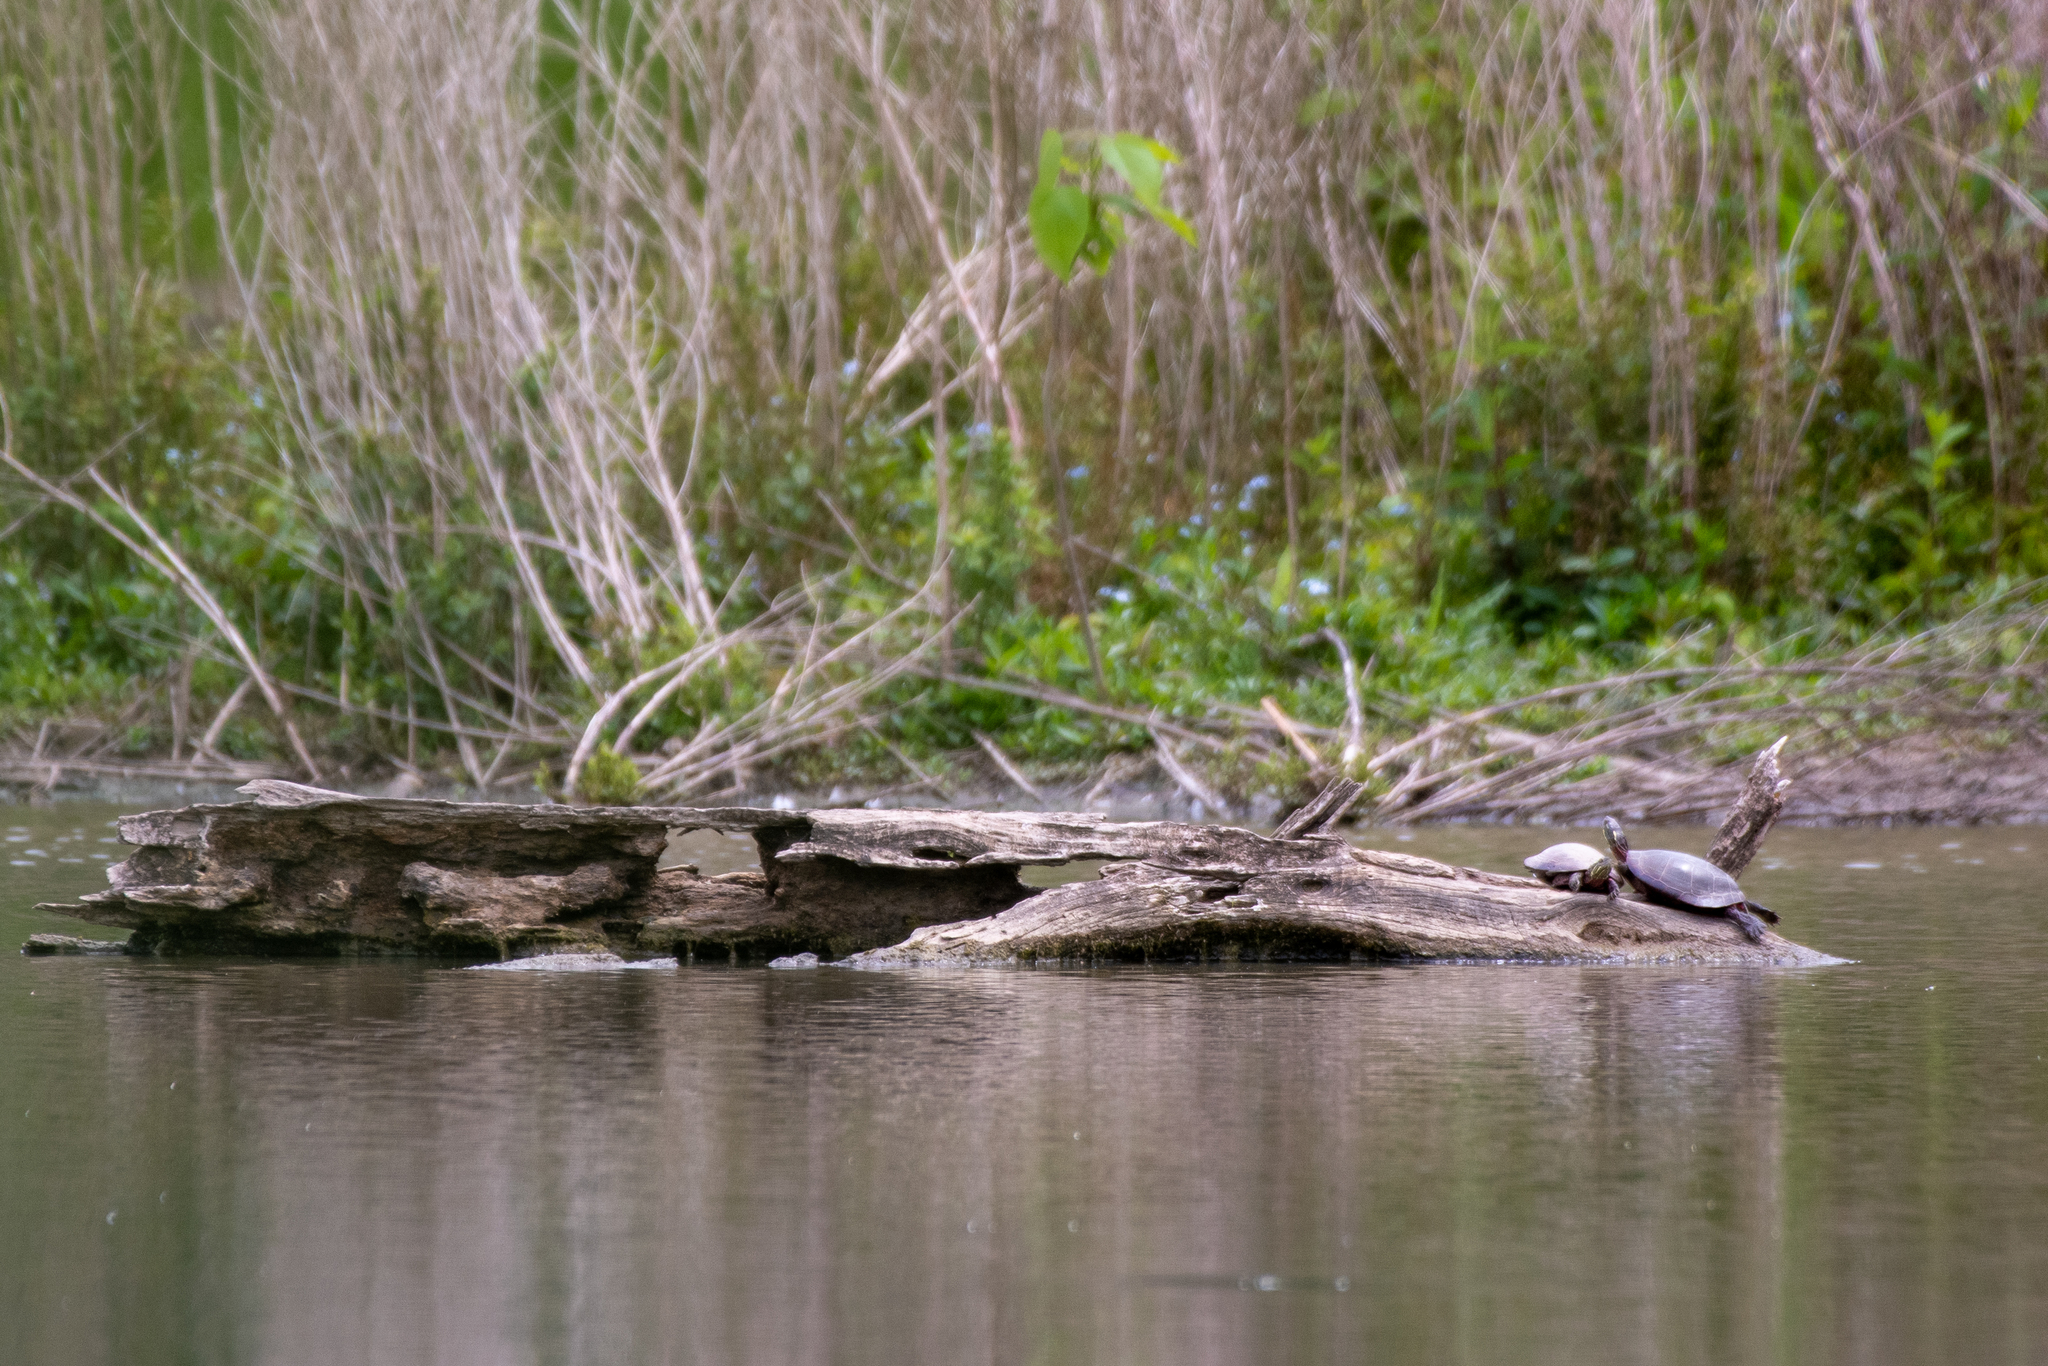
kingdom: Animalia
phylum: Chordata
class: Testudines
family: Emydidae
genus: Chrysemys
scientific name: Chrysemys picta
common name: Painted turtle
